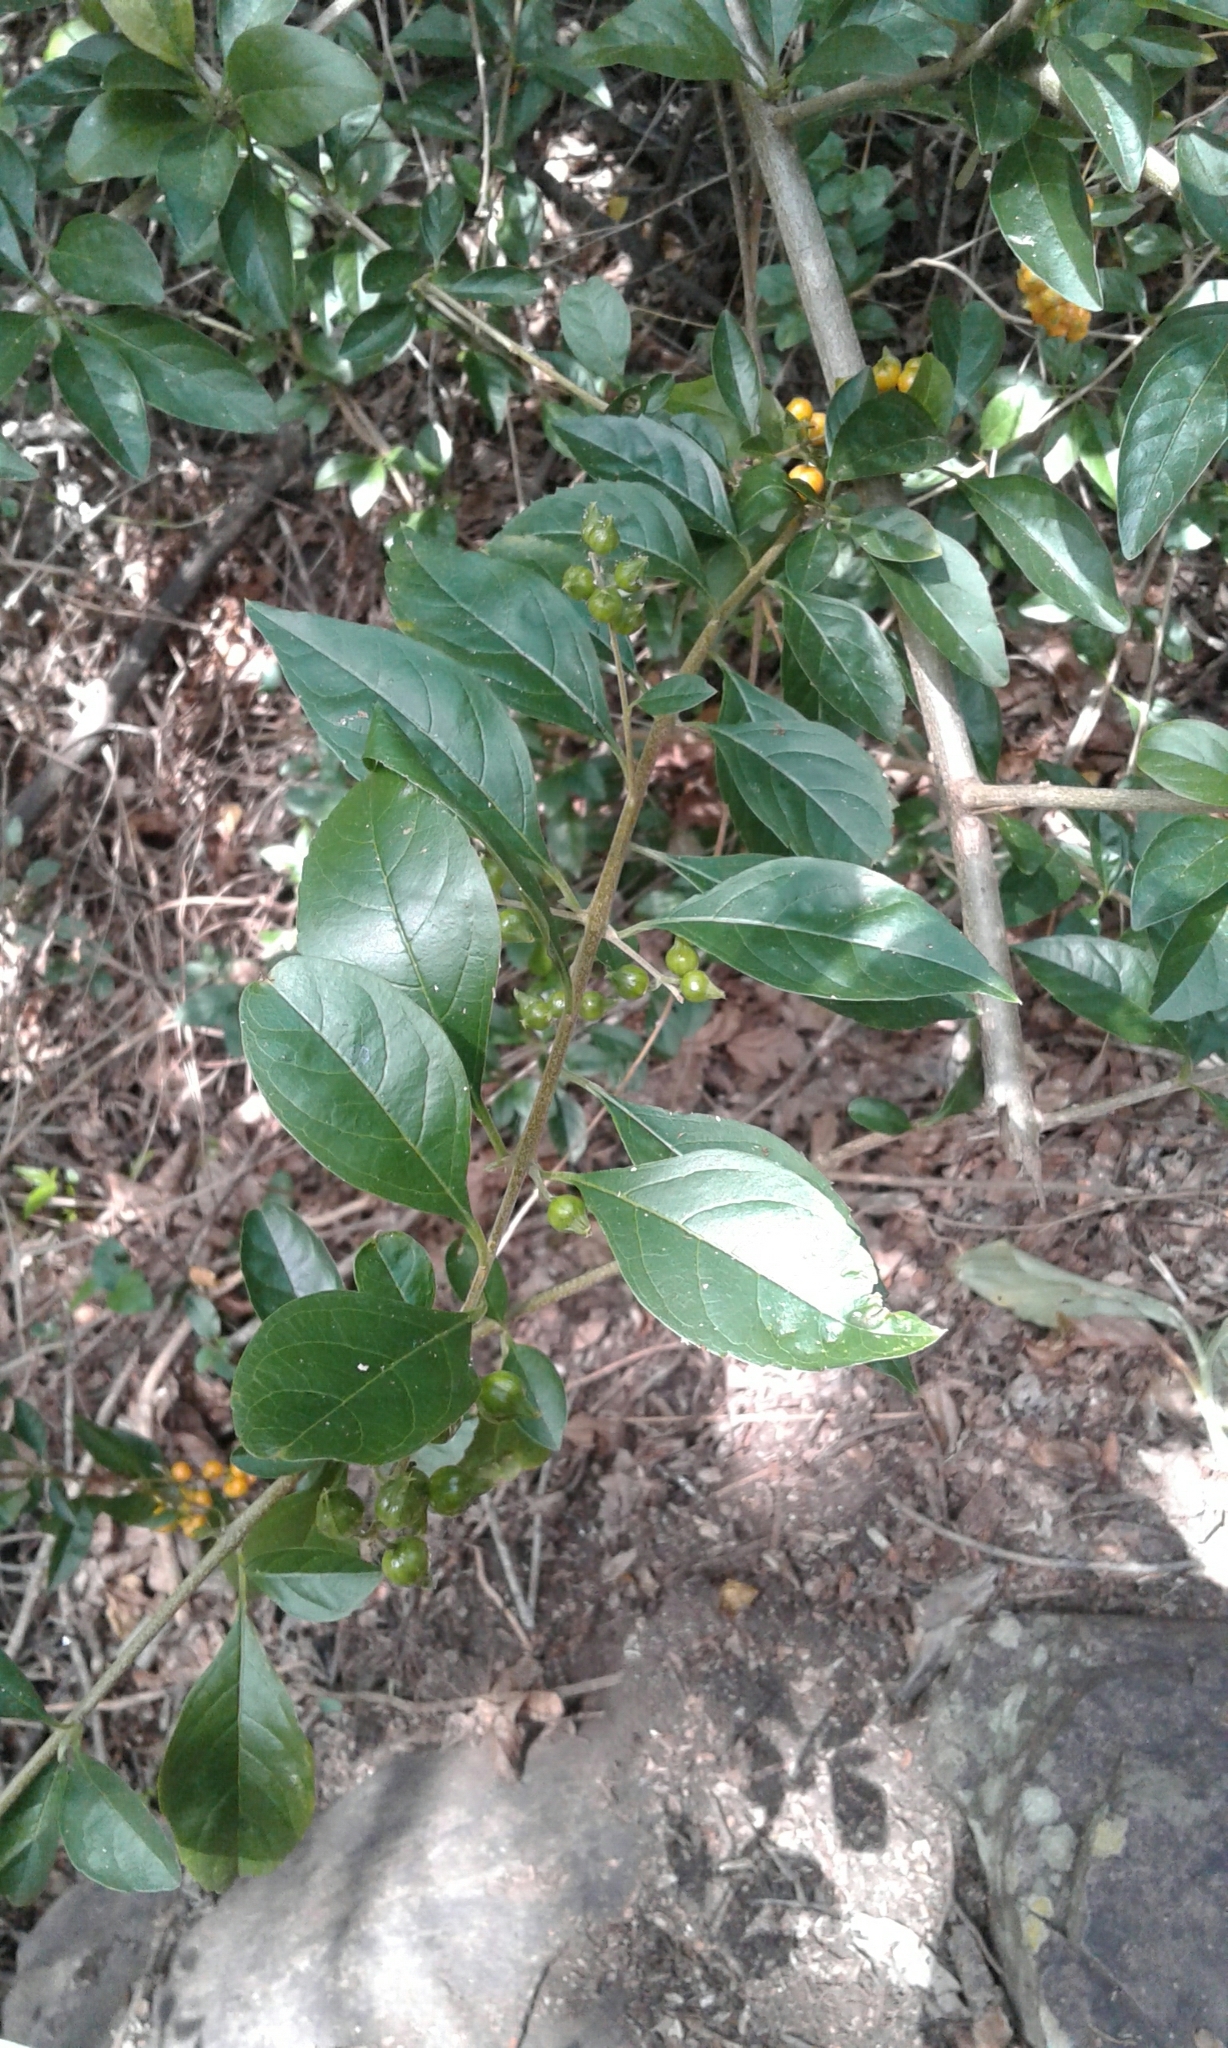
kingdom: Plantae
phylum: Tracheophyta
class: Magnoliopsida
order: Lamiales
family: Verbenaceae
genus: Duranta
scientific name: Duranta erecta
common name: Golden dewdrops
